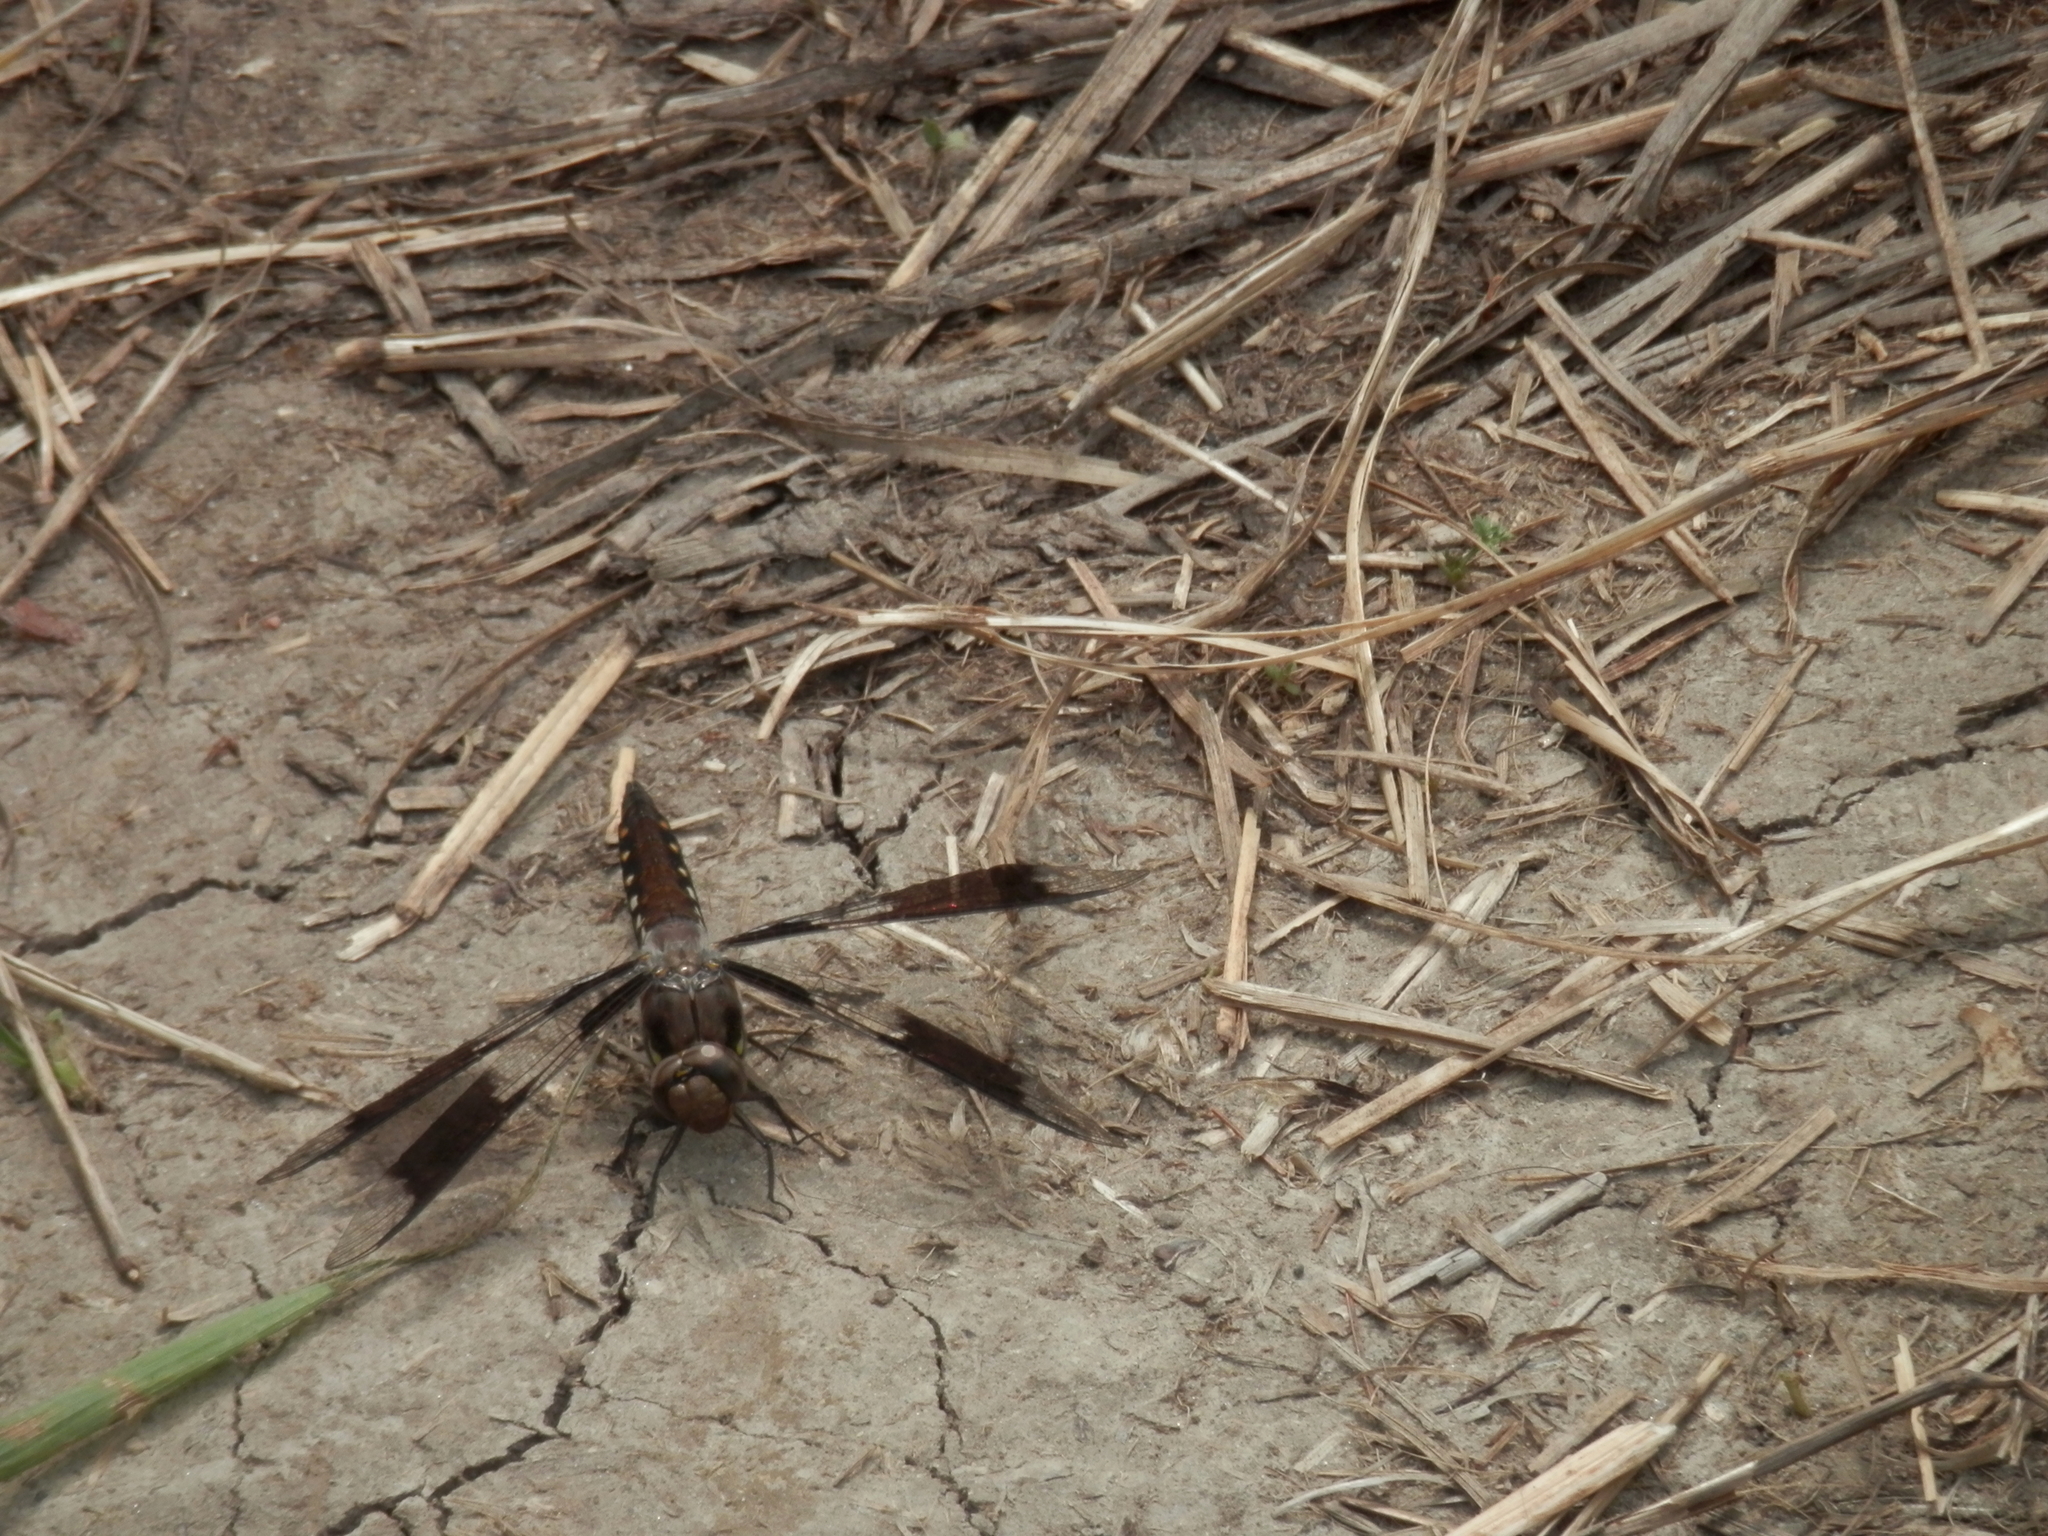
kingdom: Animalia
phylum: Arthropoda
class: Insecta
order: Odonata
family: Libellulidae
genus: Plathemis
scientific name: Plathemis lydia
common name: Common whitetail
